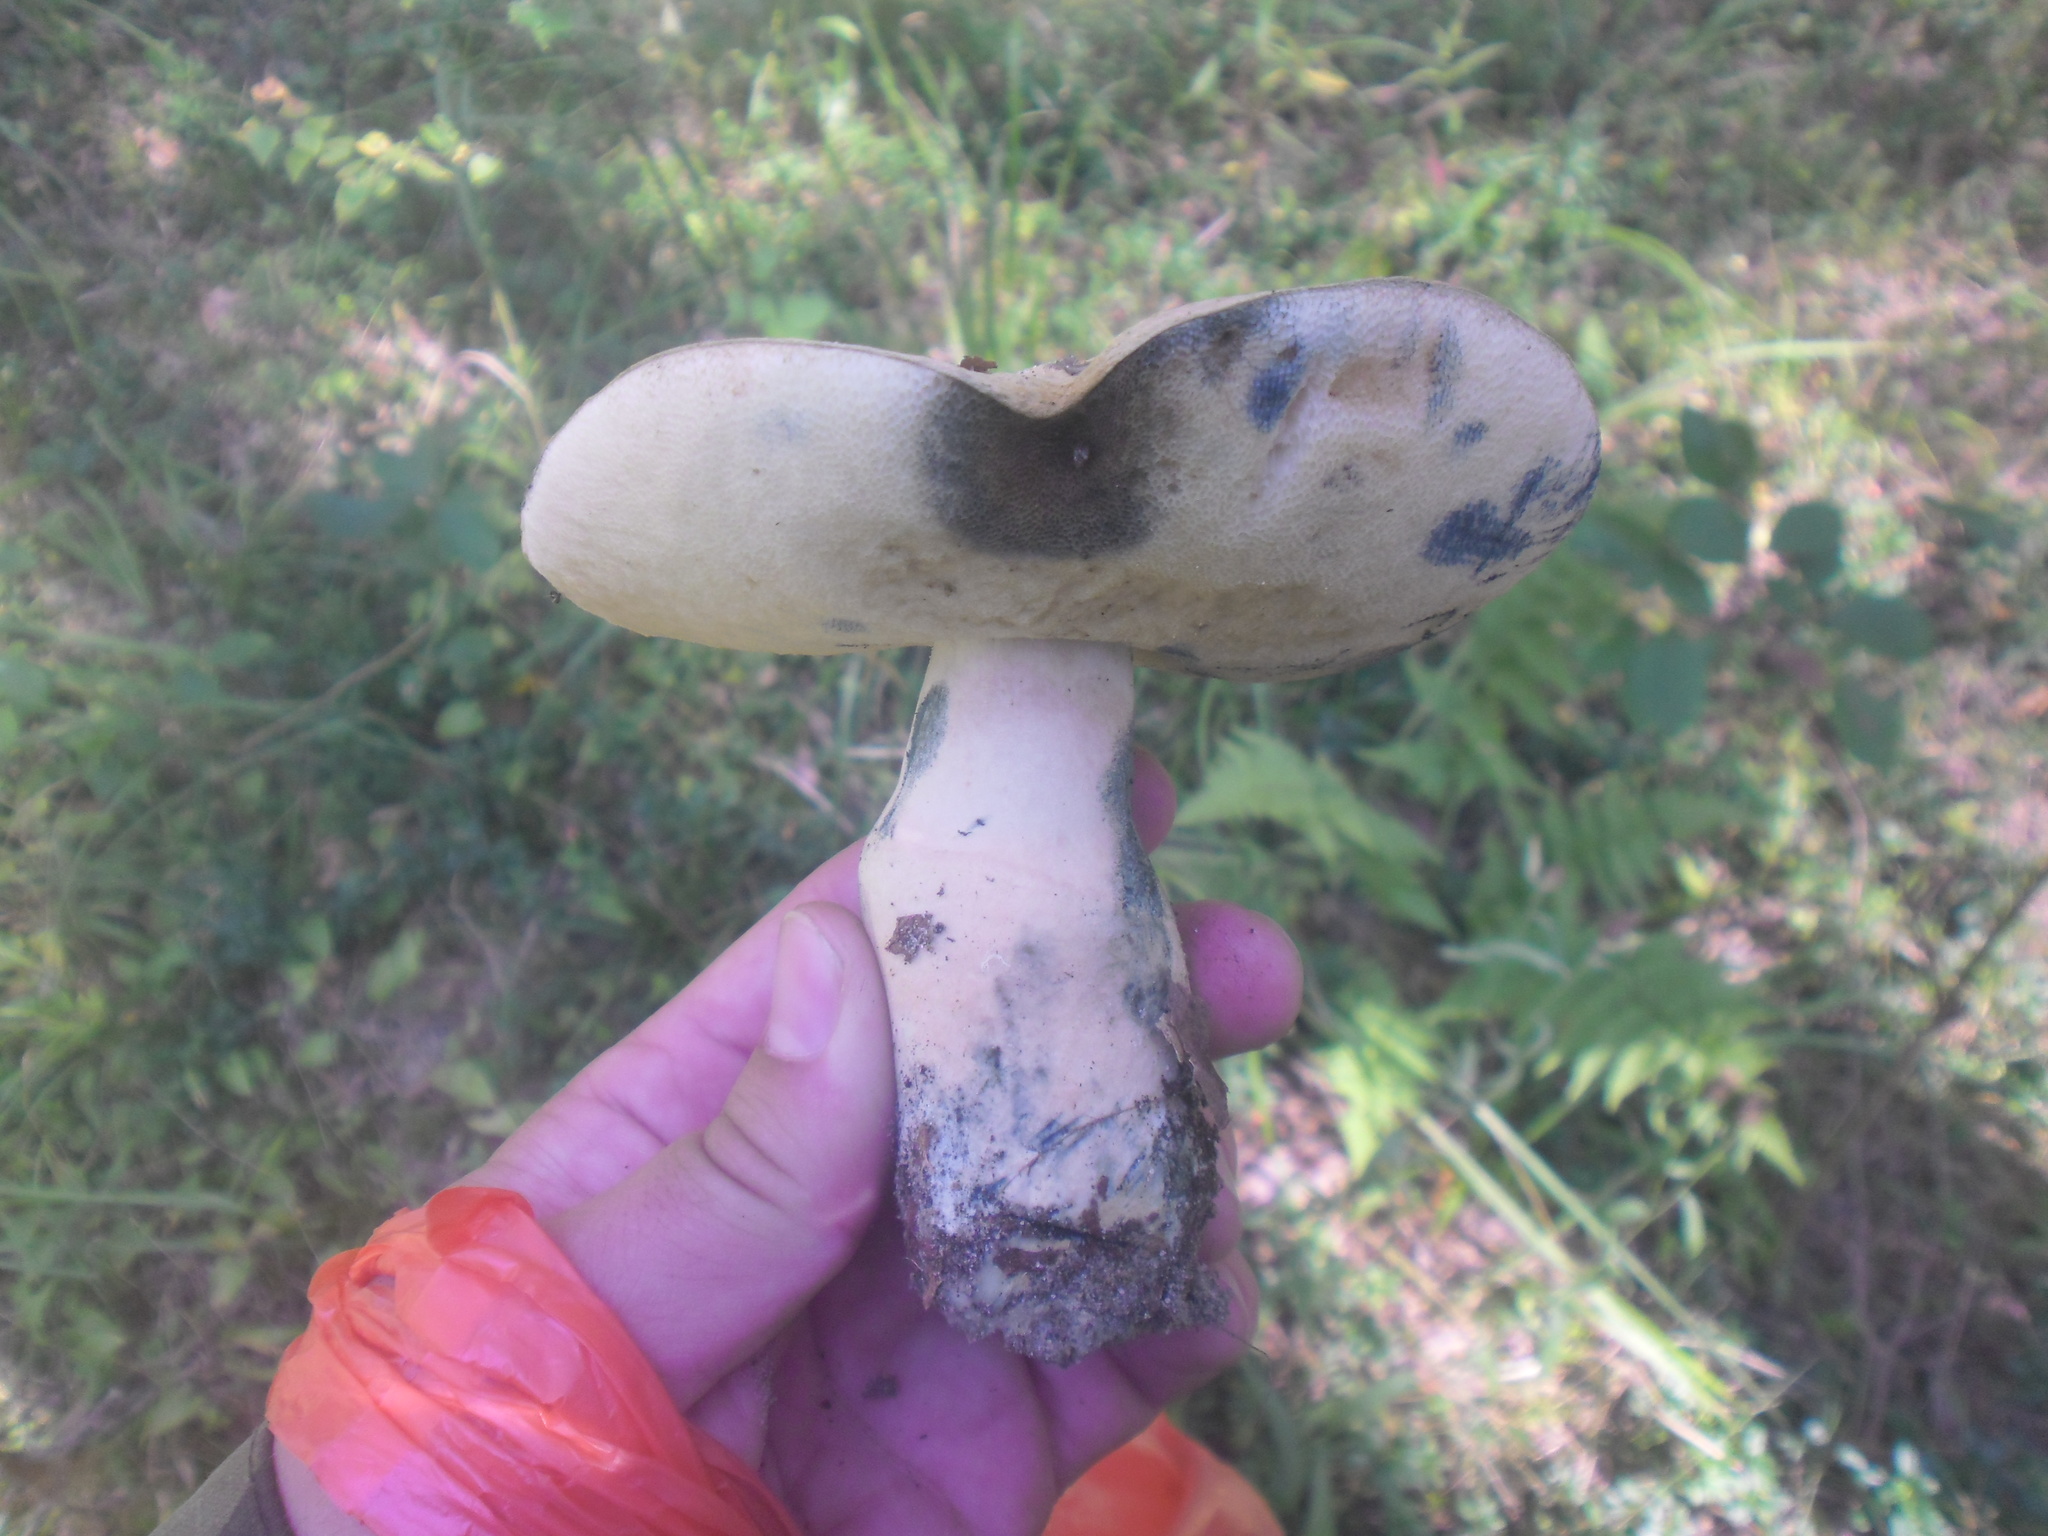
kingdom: Fungi
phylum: Basidiomycota
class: Agaricomycetes
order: Boletales
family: Gyroporaceae
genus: Gyroporus
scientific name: Gyroporus cyanescens
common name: Cornflower bolete
